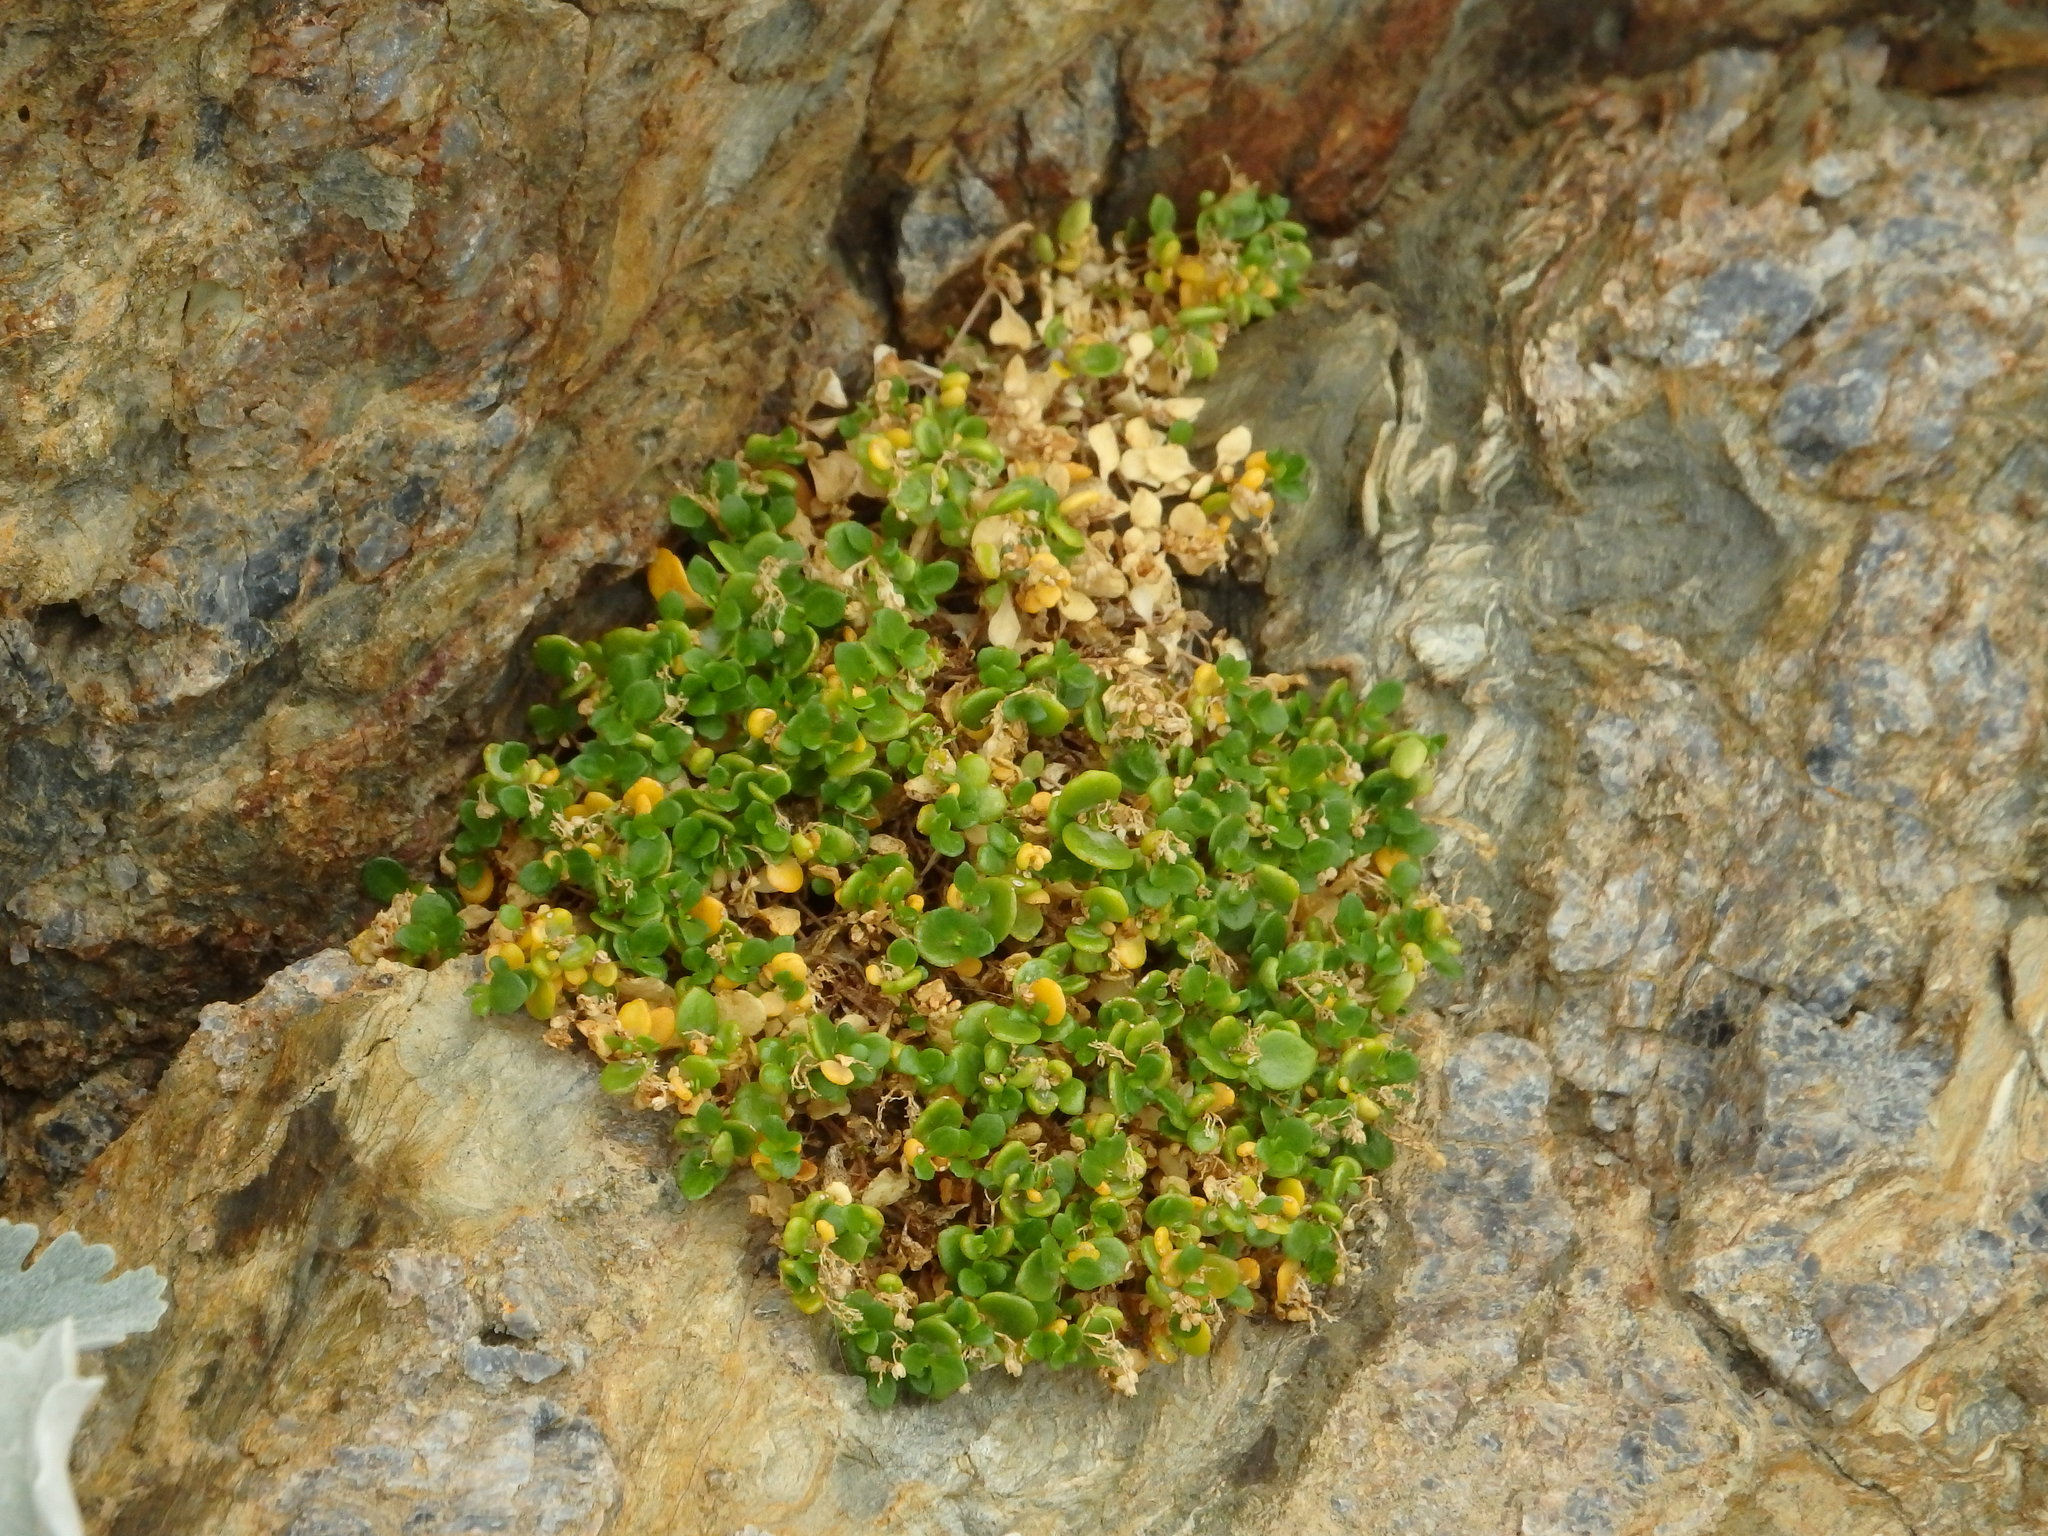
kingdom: Plantae
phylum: Tracheophyta
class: Magnoliopsida
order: Caryophyllales
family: Caryophyllaceae
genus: Polycarpon
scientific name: Polycarpon polycarpoides
